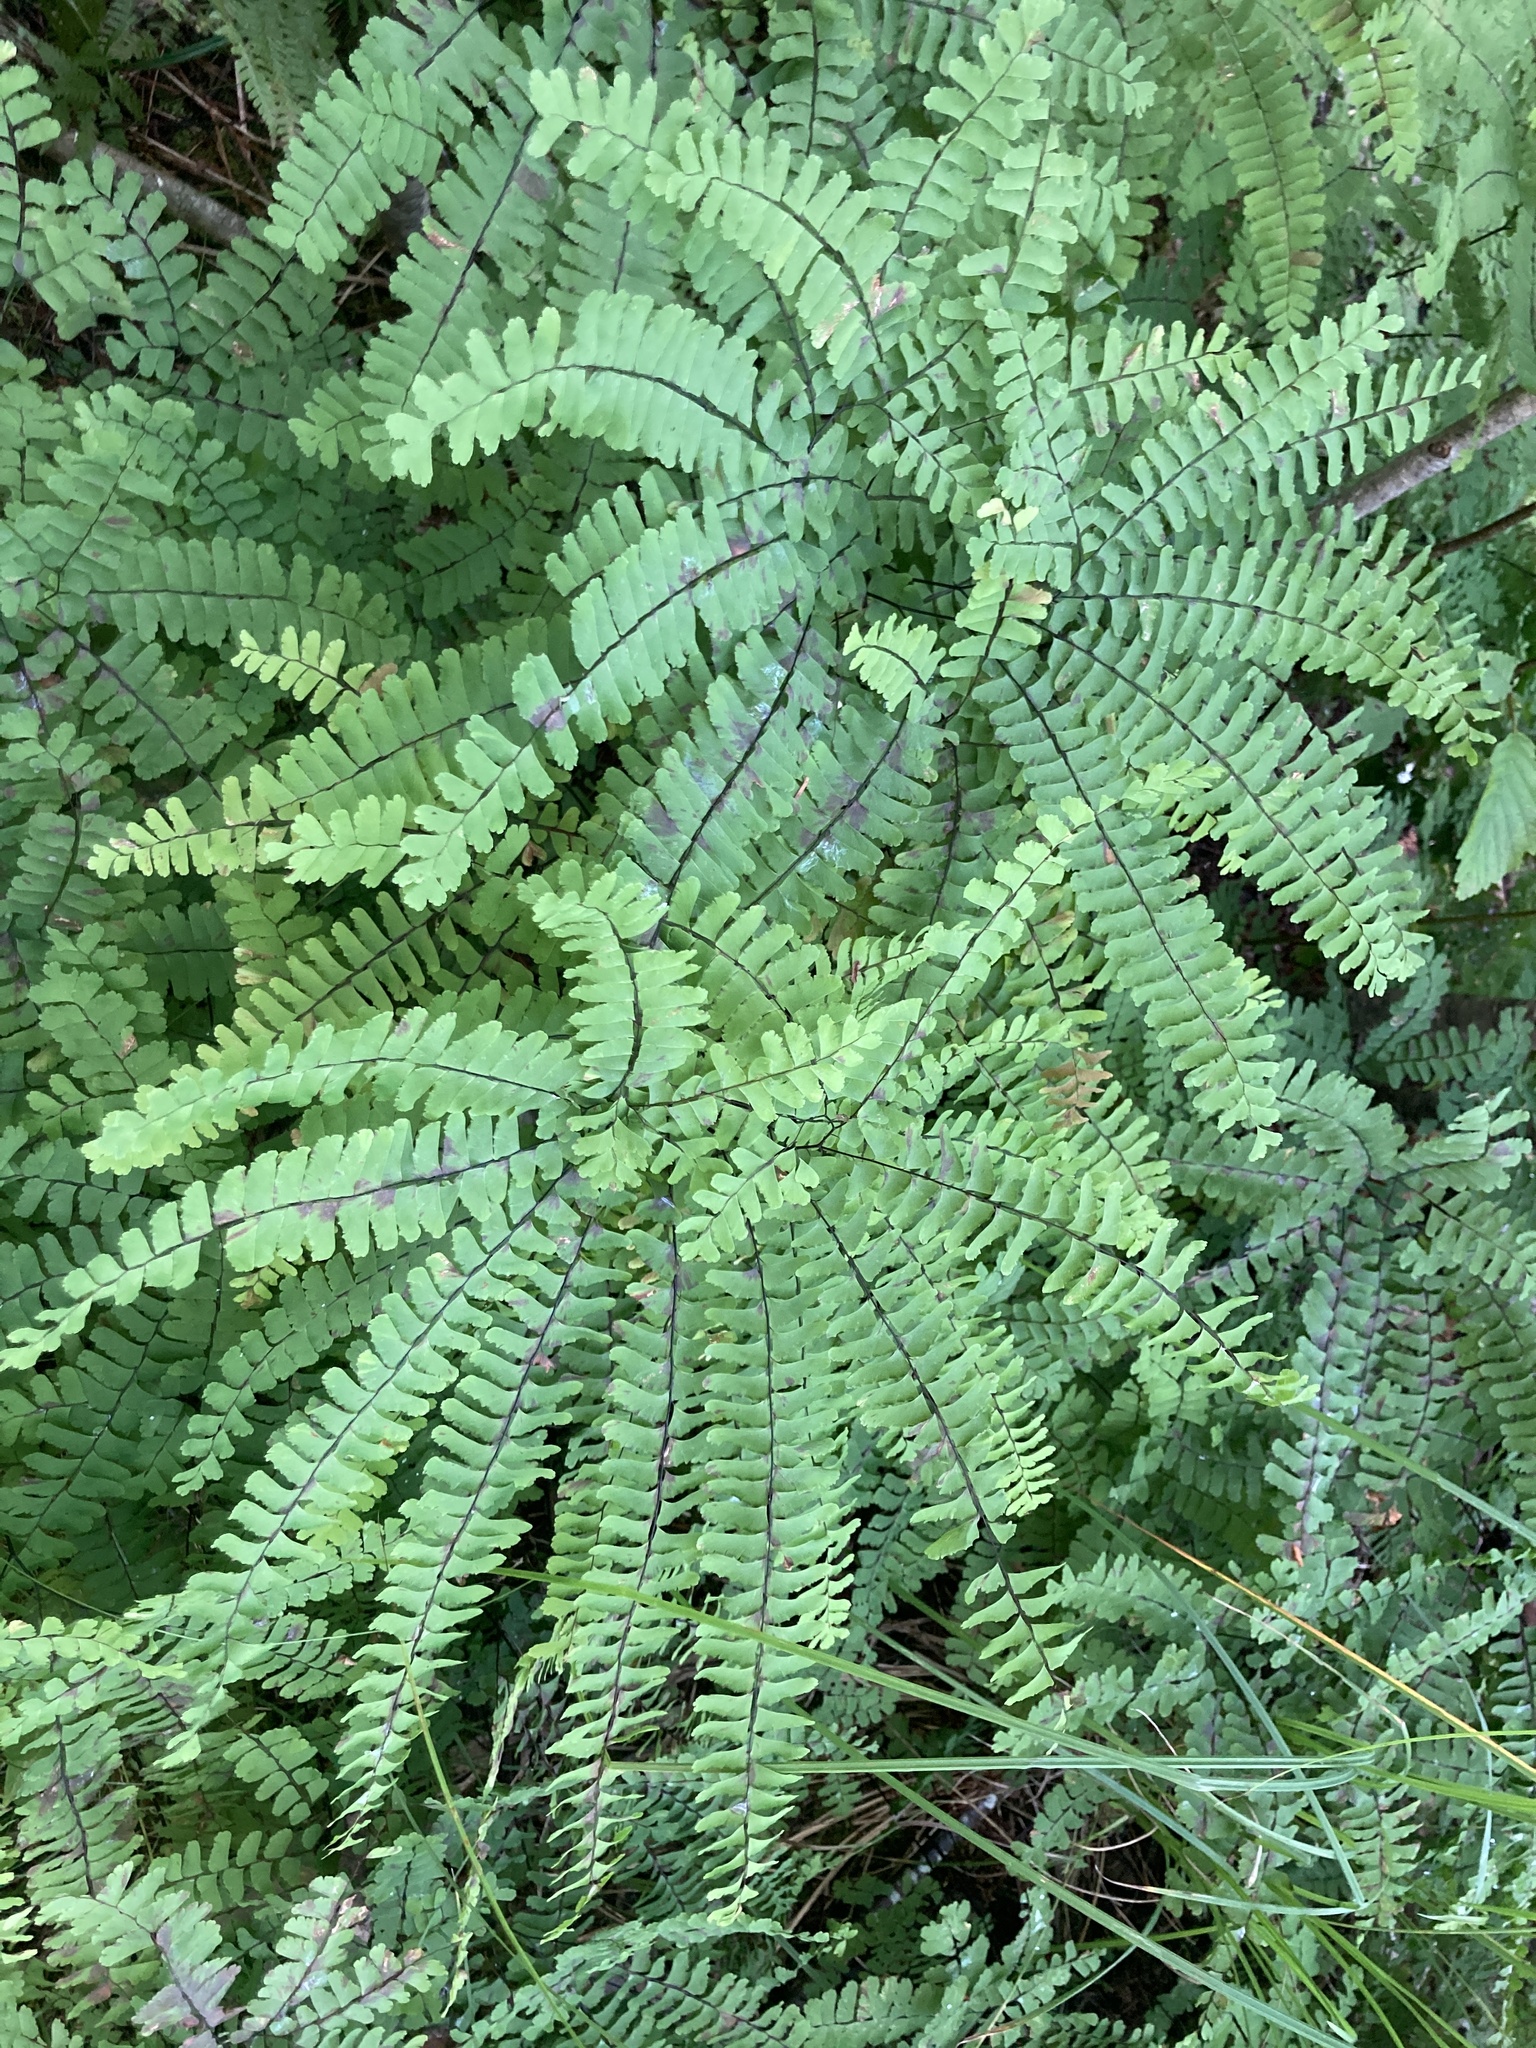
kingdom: Plantae
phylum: Tracheophyta
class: Polypodiopsida
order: Polypodiales
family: Pteridaceae
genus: Adiantum
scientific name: Adiantum pedatum
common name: Five-finger fern
